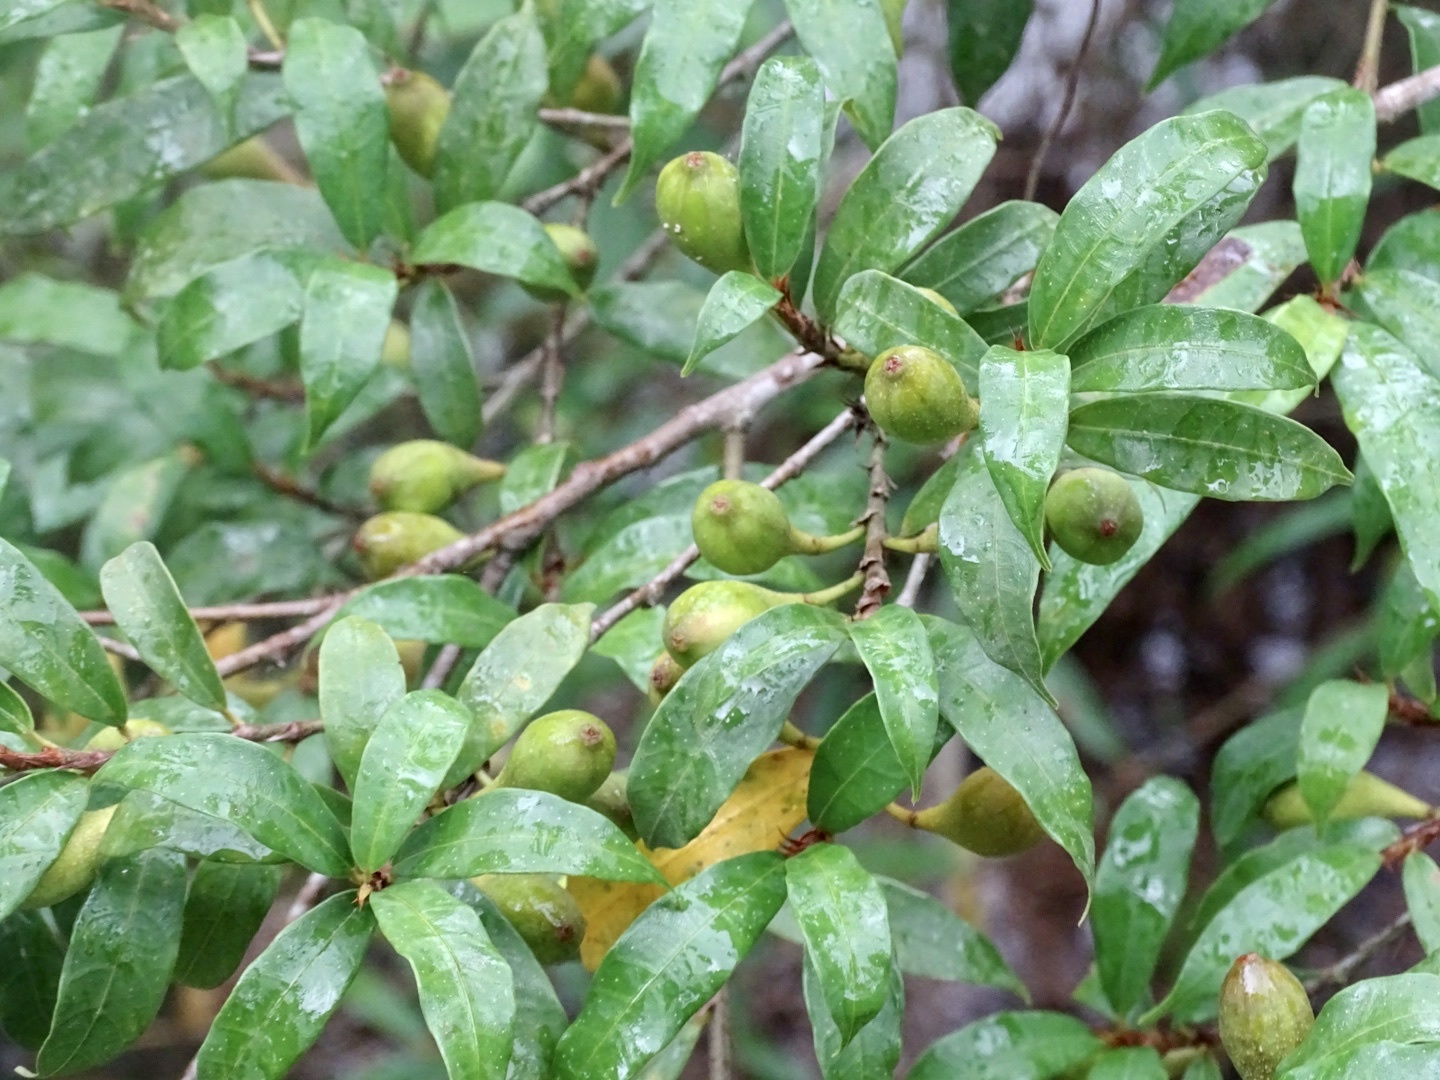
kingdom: Plantae
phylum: Tracheophyta
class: Magnoliopsida
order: Rosales
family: Moraceae
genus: Ficus
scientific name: Ficus pyriformis
